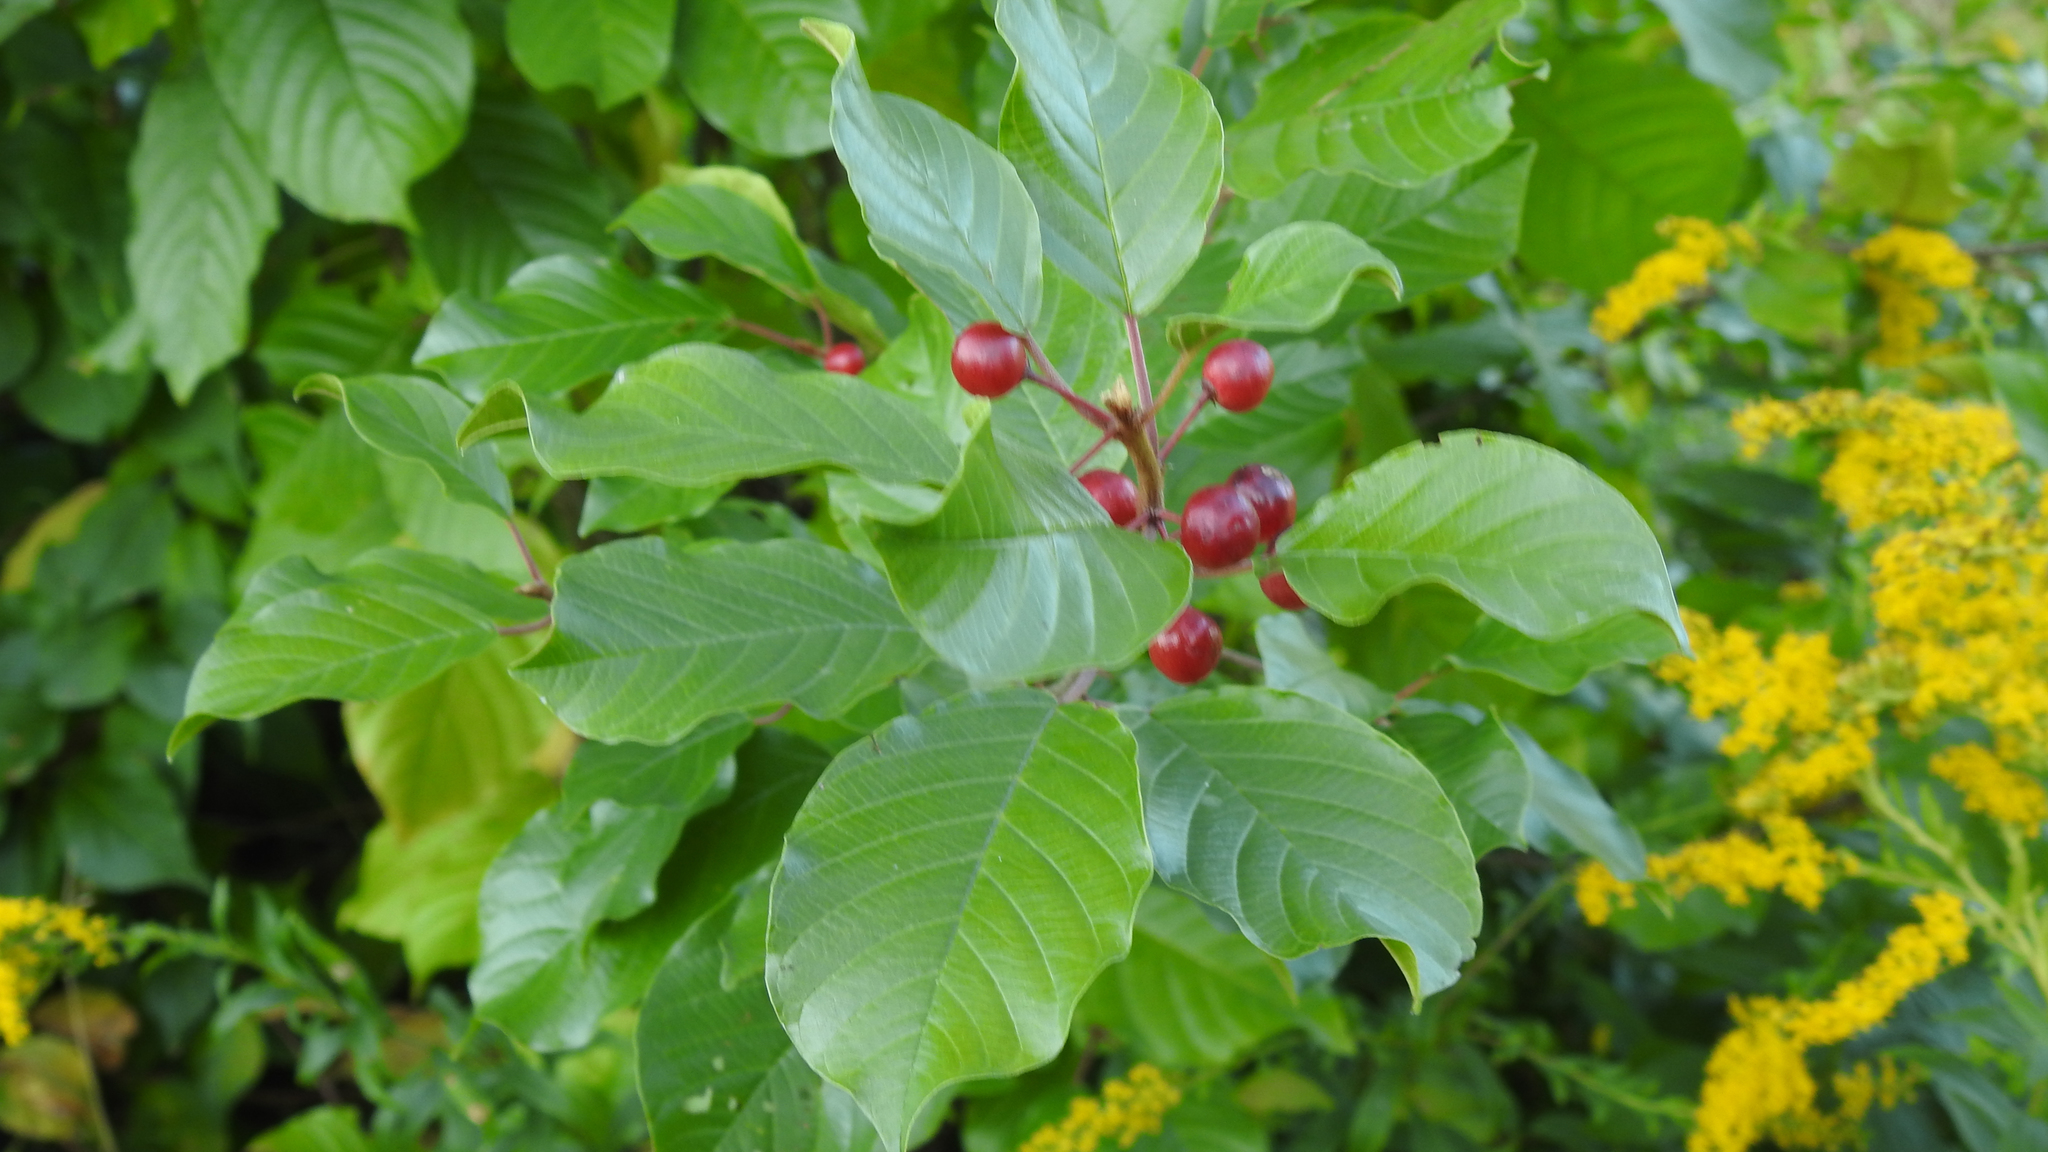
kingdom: Plantae
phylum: Tracheophyta
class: Magnoliopsida
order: Rosales
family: Rhamnaceae
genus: Frangula
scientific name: Frangula alnus
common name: Alder buckthorn
